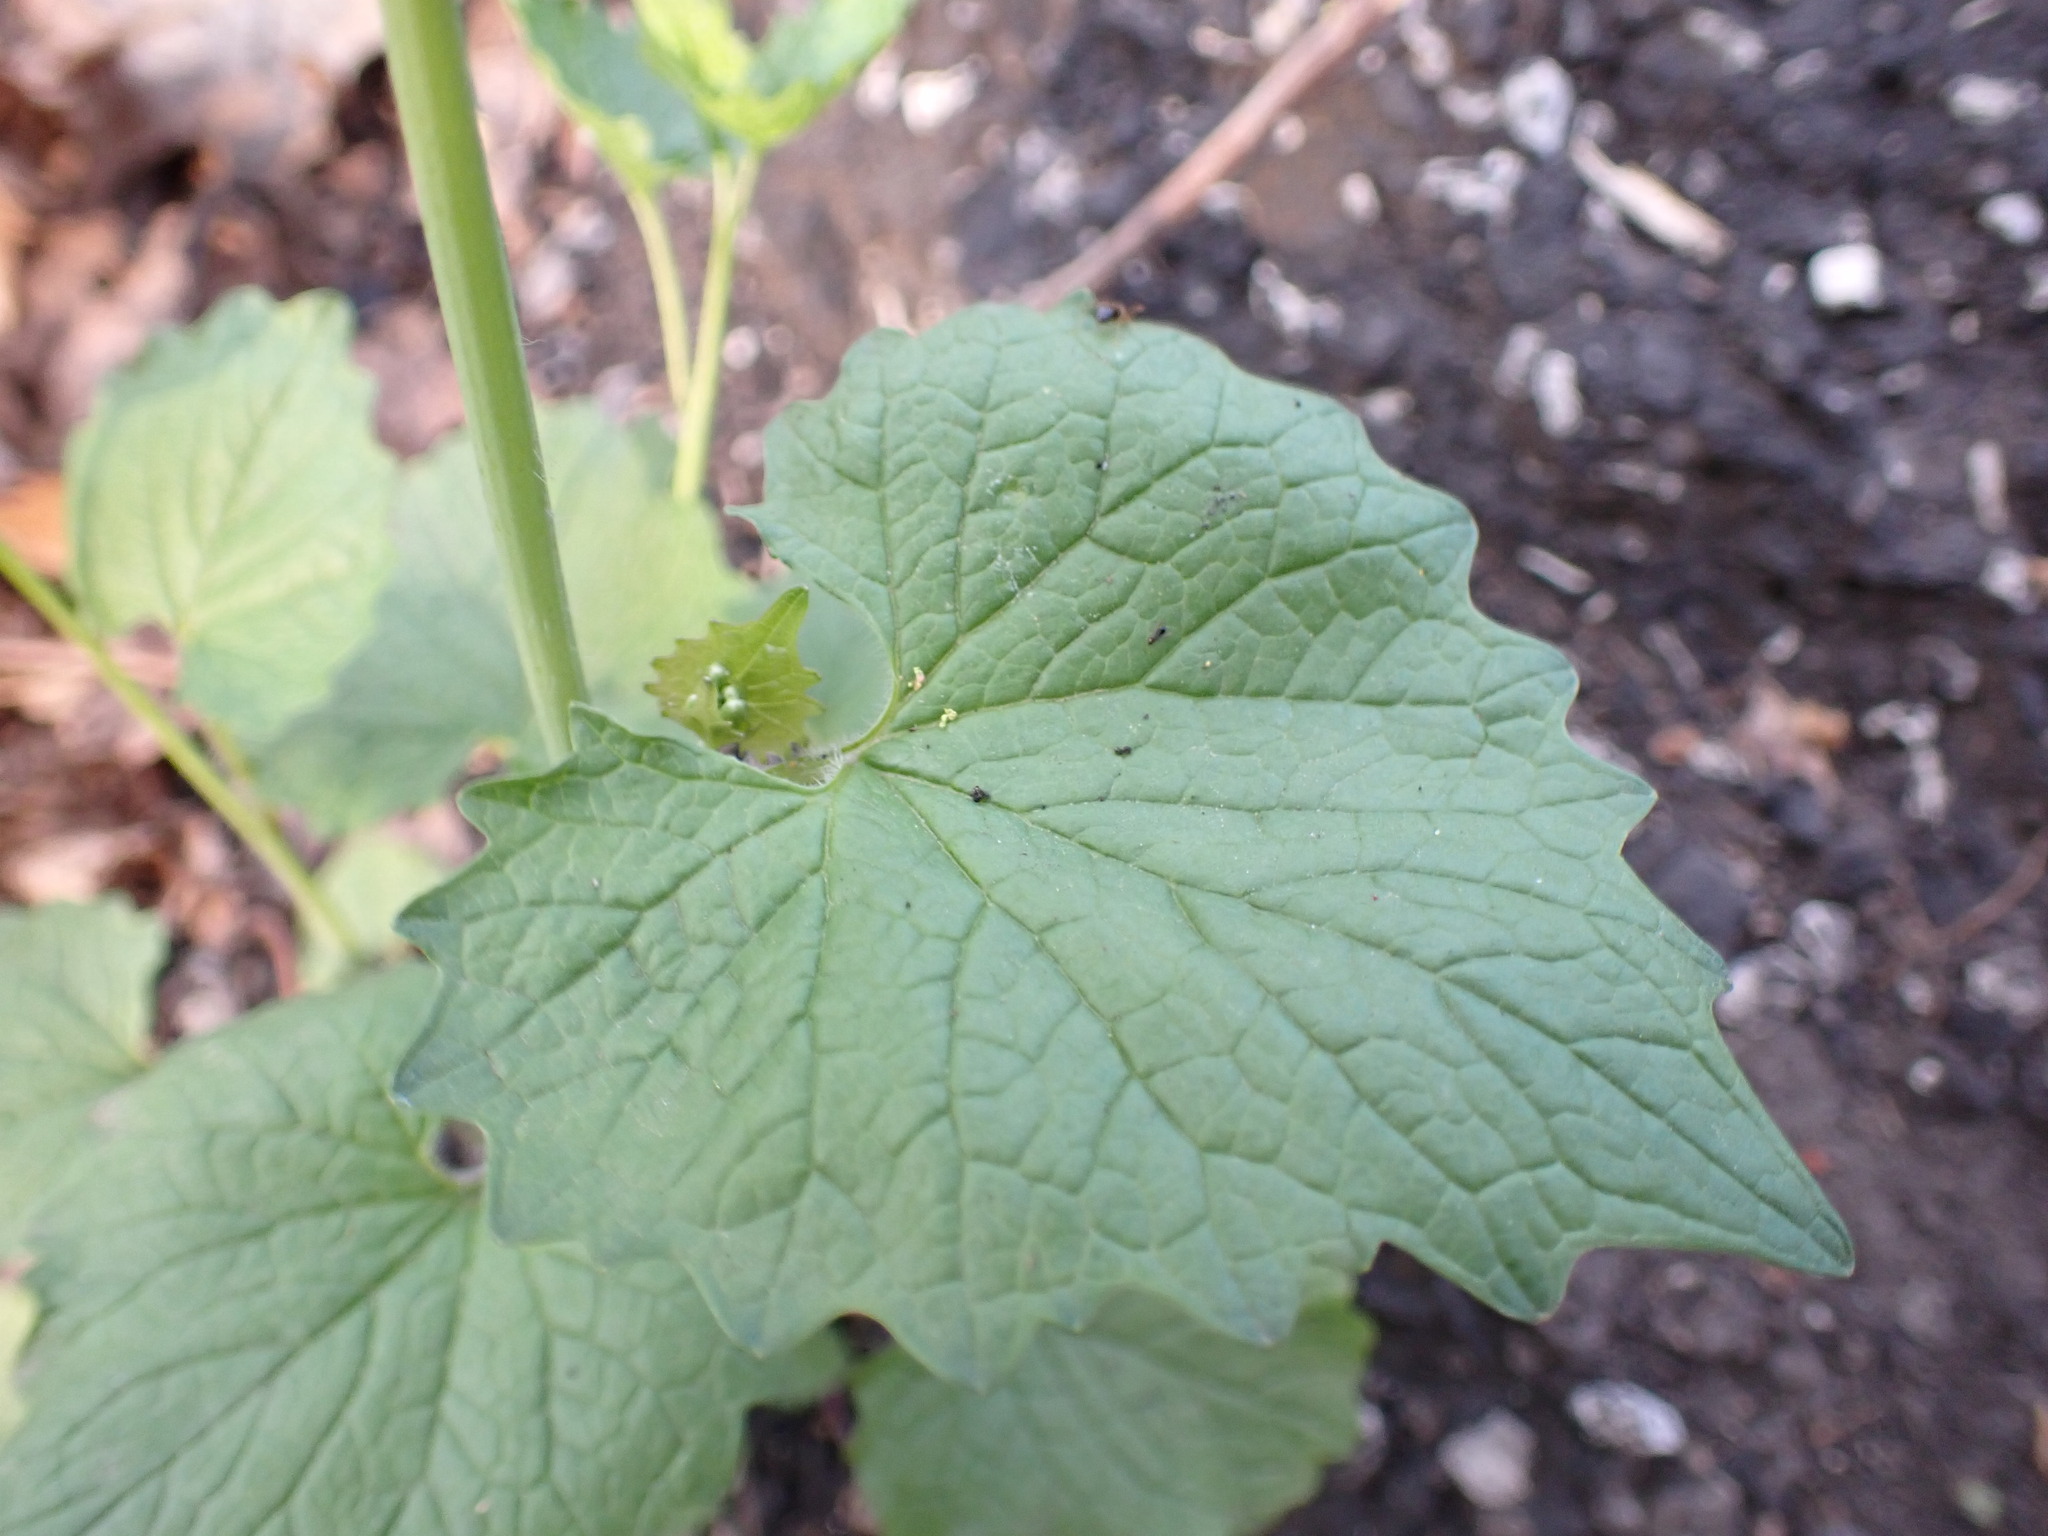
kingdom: Plantae
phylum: Tracheophyta
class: Magnoliopsida
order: Brassicales
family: Brassicaceae
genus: Alliaria
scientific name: Alliaria petiolata
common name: Garlic mustard
